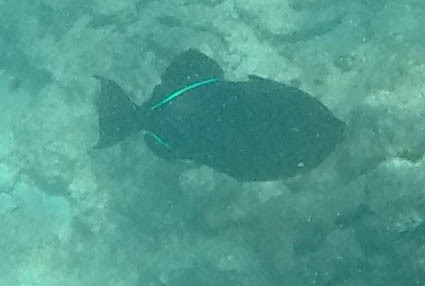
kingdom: Animalia
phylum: Chordata
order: Tetraodontiformes
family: Balistidae
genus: Melichthys
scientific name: Melichthys niger
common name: Black durgon
